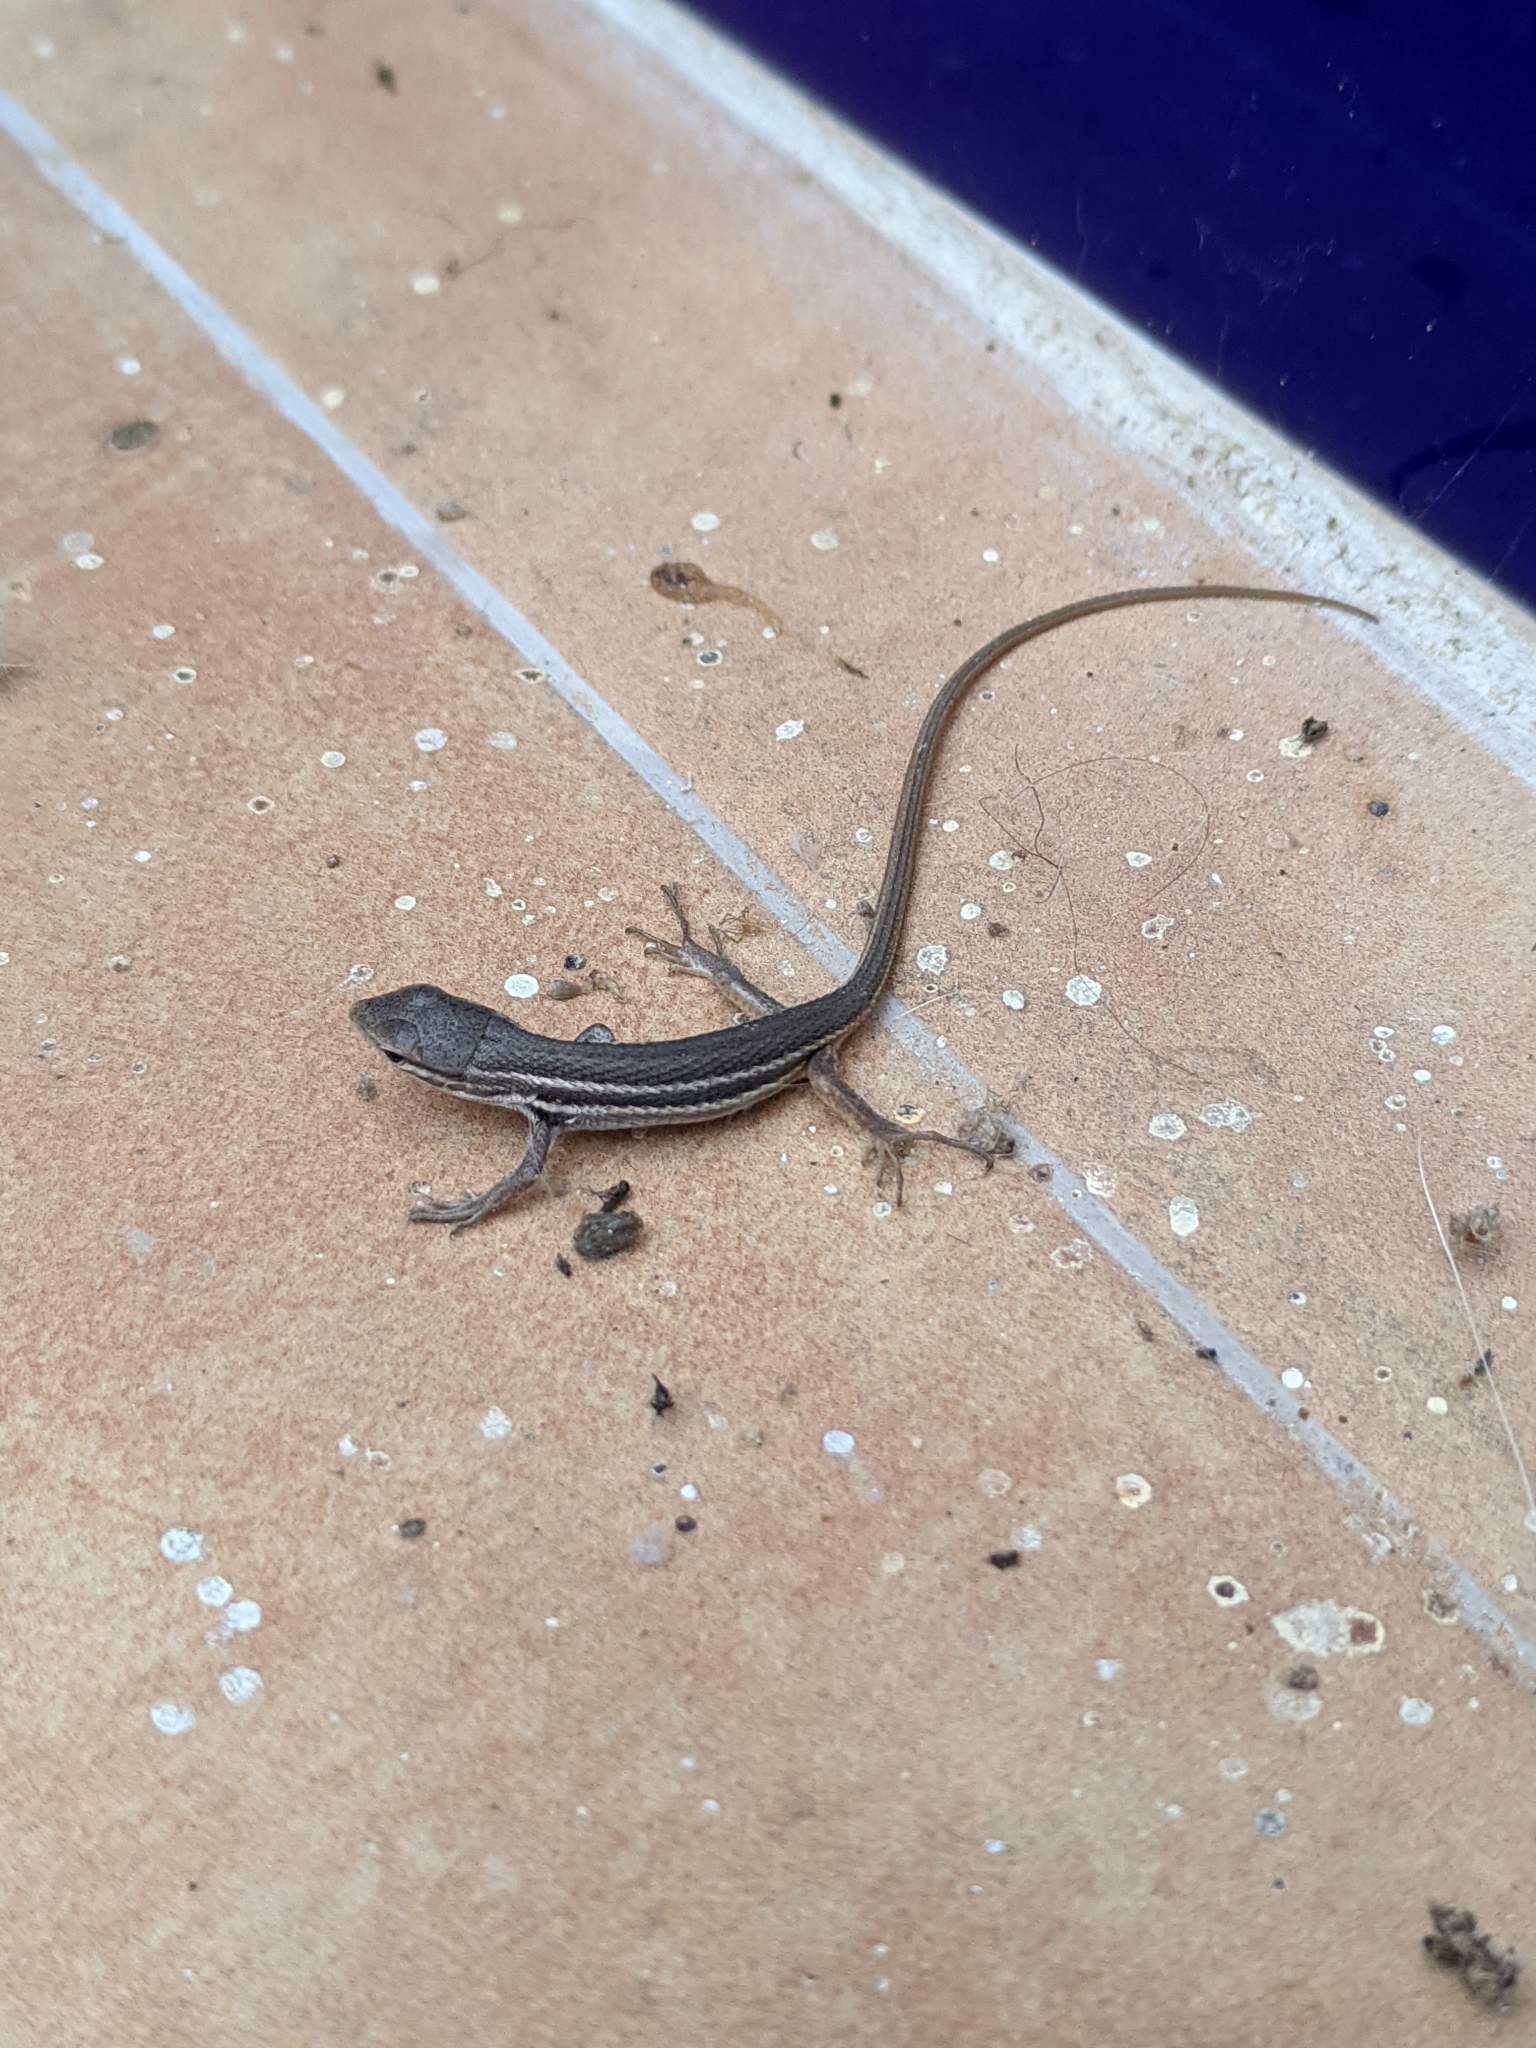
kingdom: Animalia
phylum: Chordata
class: Squamata
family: Lacertidae
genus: Psammodromus
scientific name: Psammodromus algirus
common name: Algerian psammodromus
